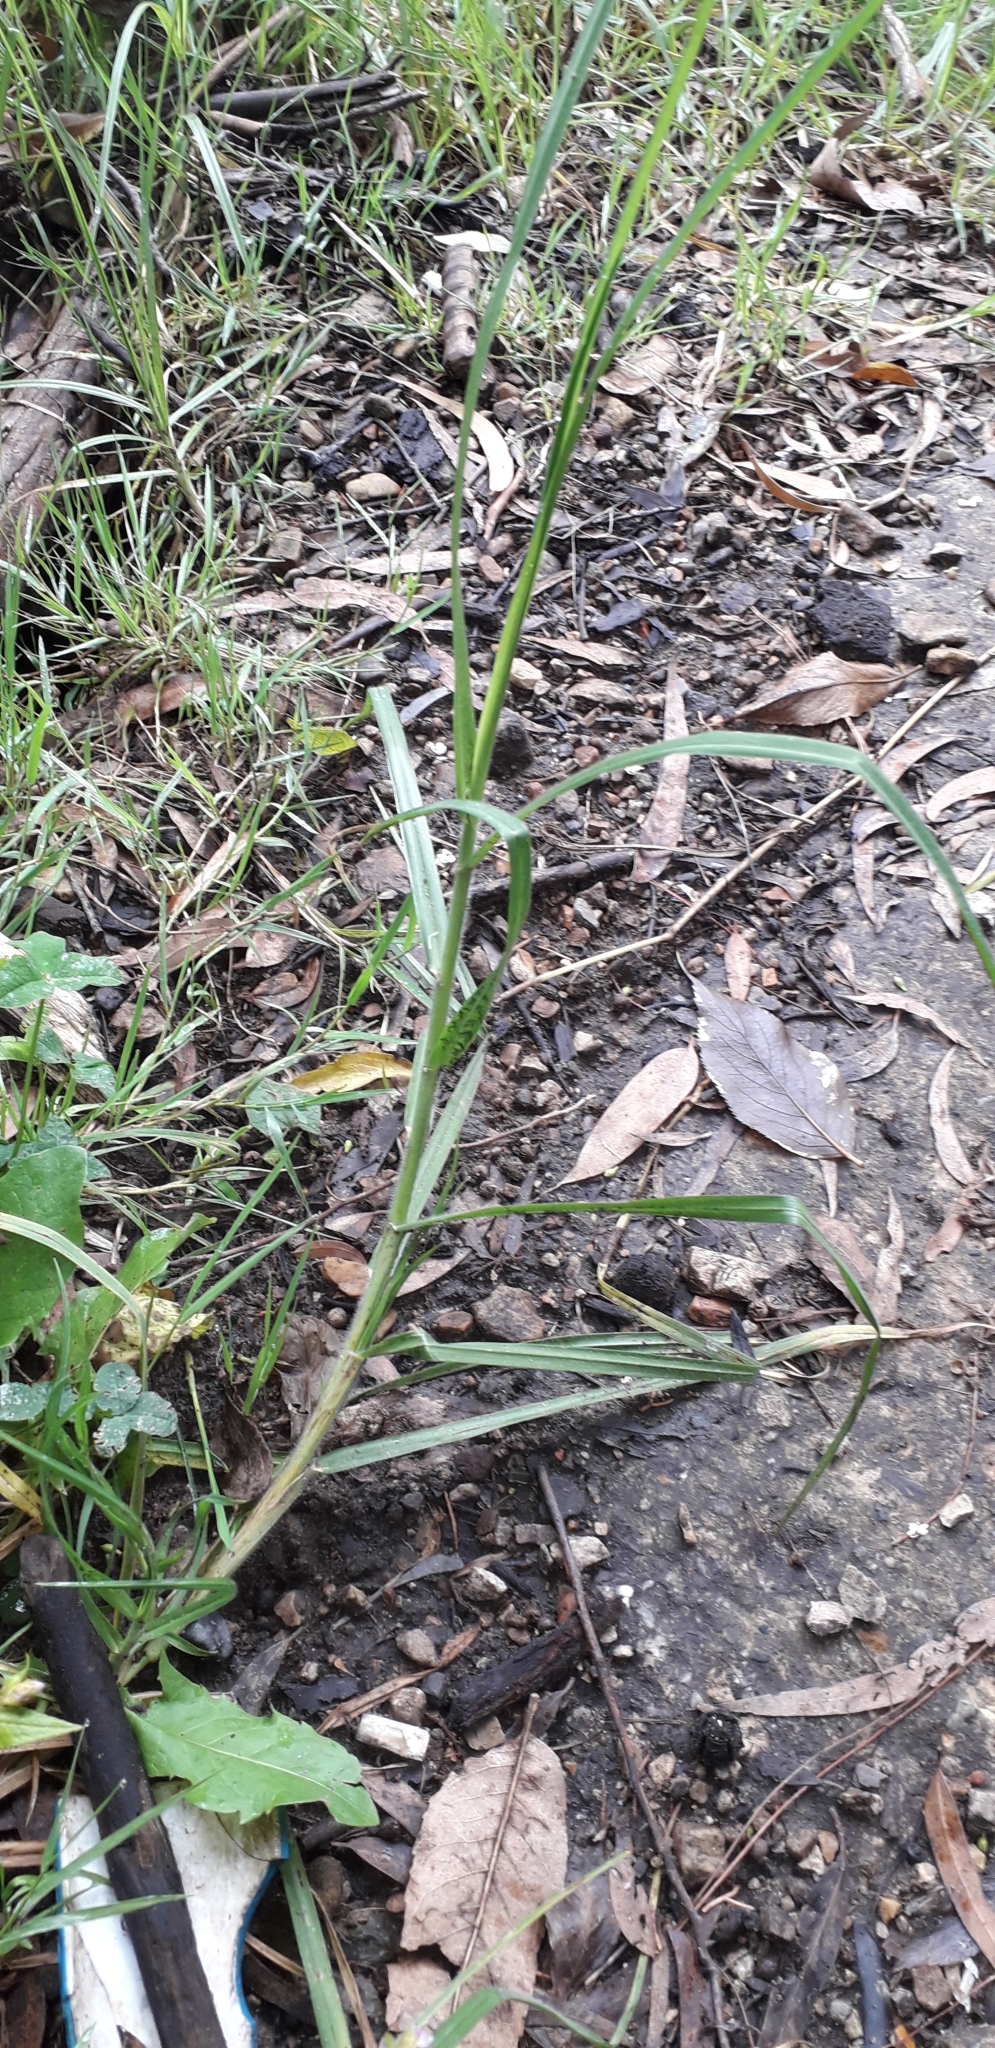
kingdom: Plantae
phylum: Tracheophyta
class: Liliopsida
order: Poales
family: Poaceae
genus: Cenchrus
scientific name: Cenchrus clandestinus
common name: Kikuyugrass
